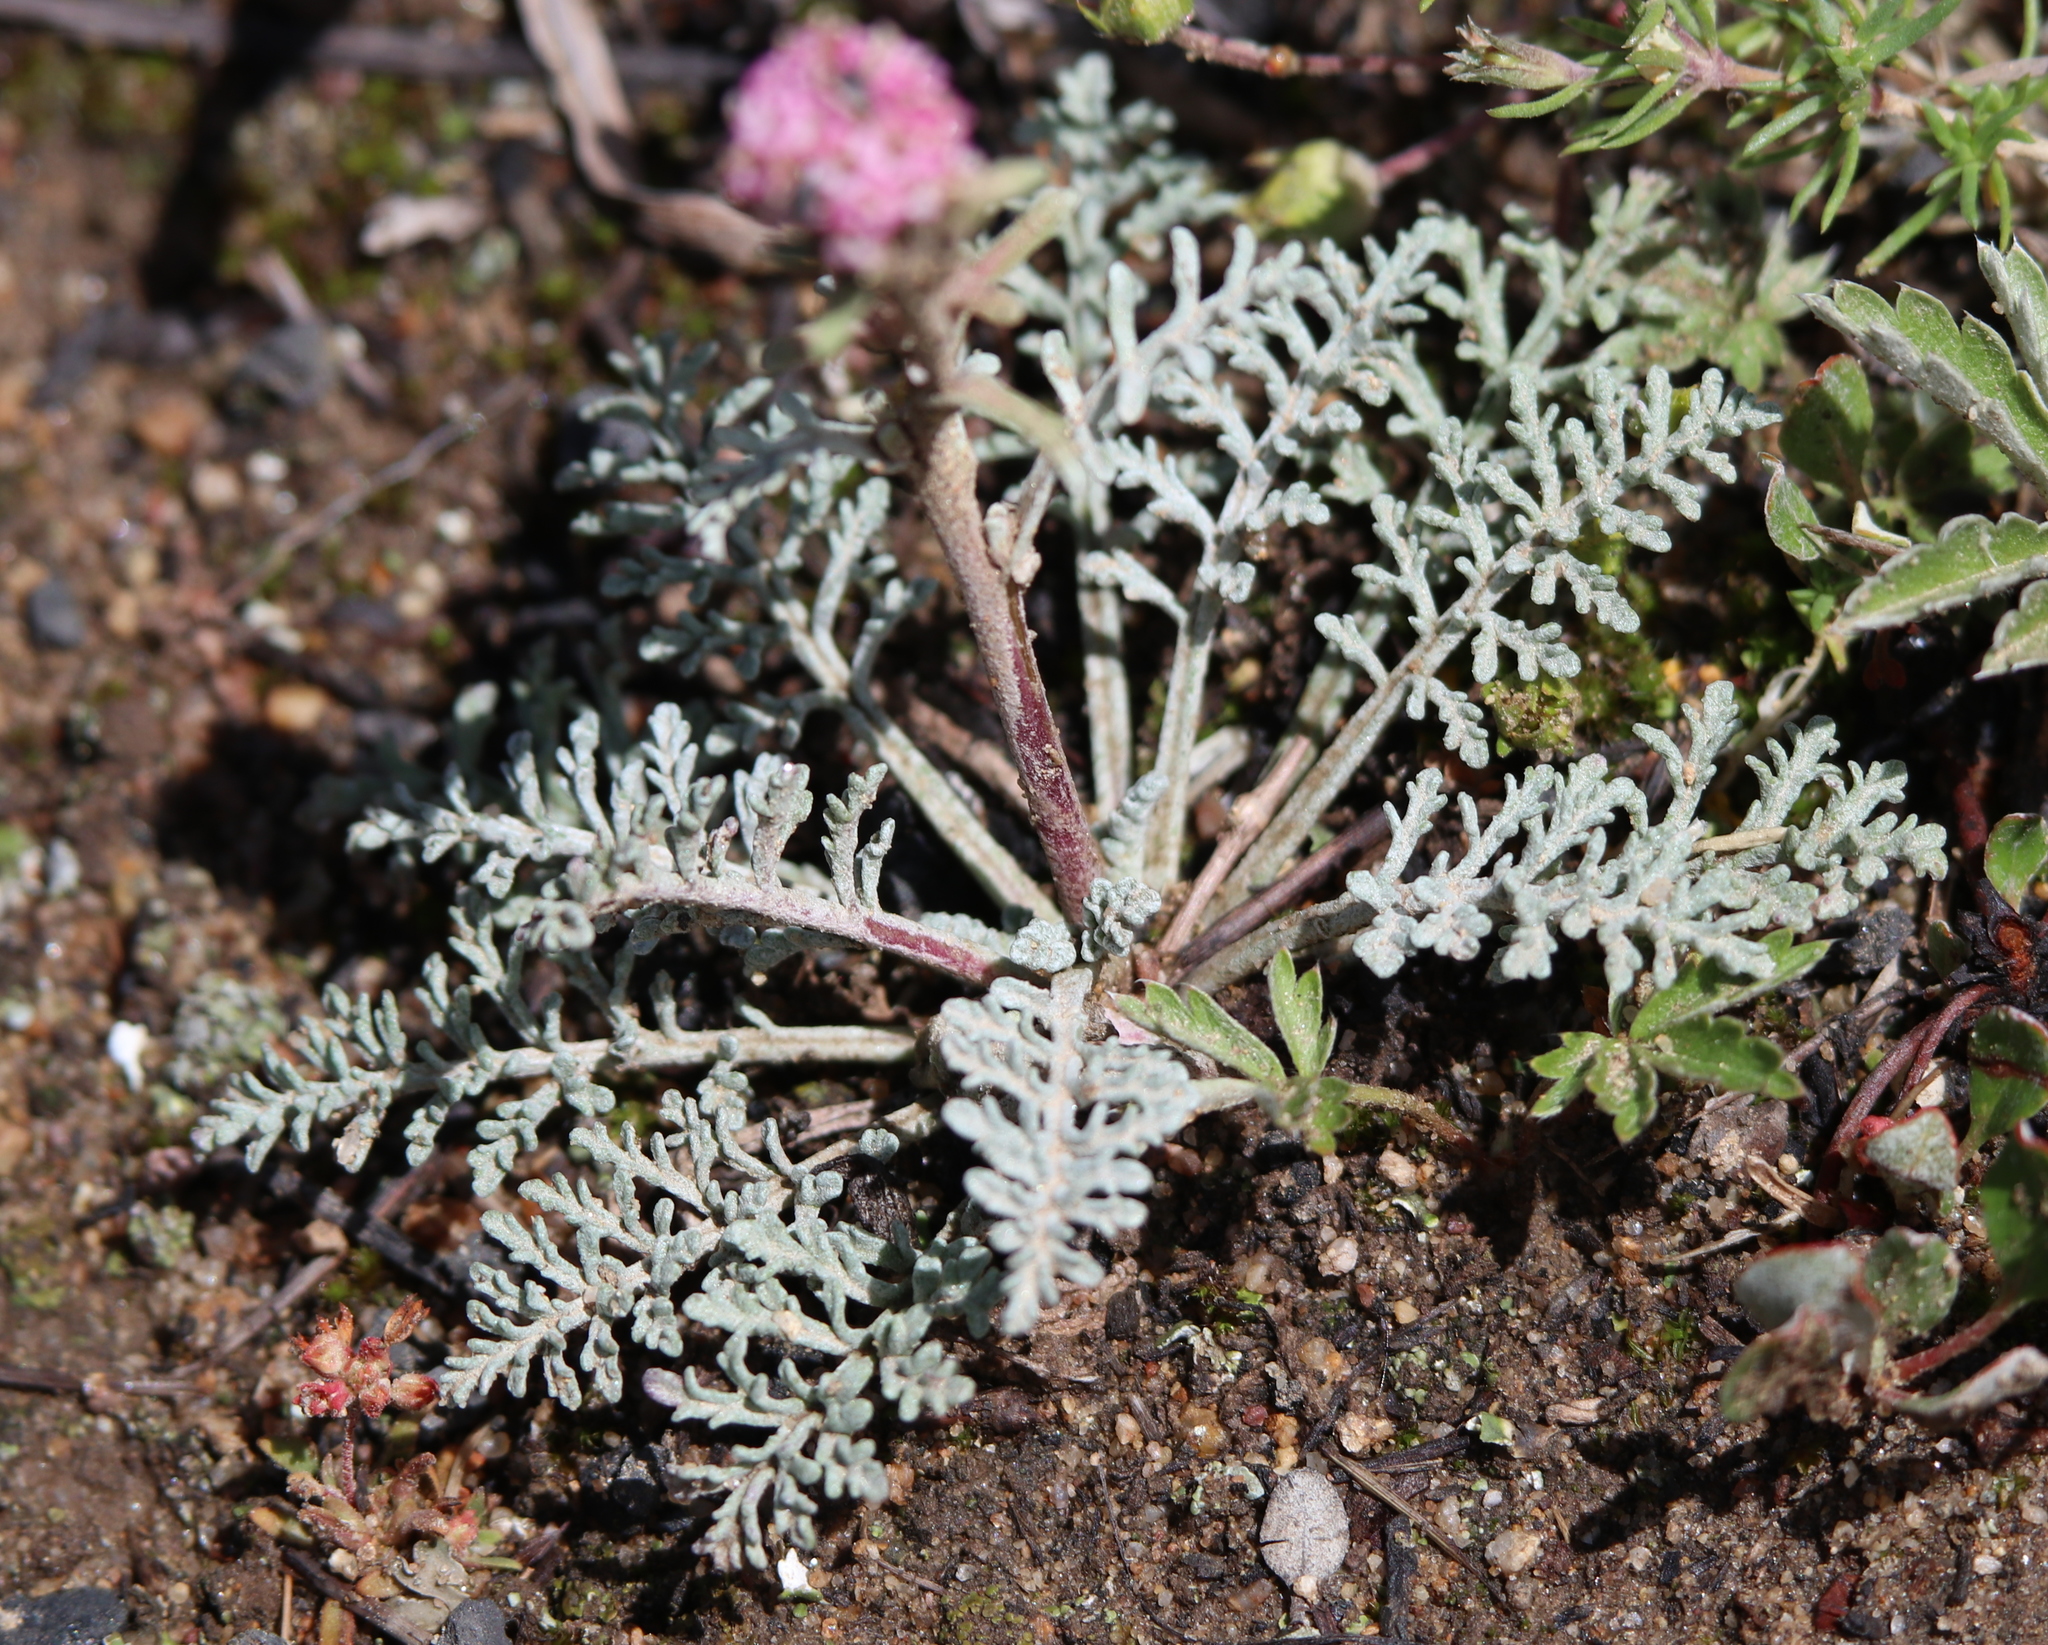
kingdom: Plantae
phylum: Tracheophyta
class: Magnoliopsida
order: Asterales
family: Asteraceae
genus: Chaenactis
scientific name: Chaenactis douglasii
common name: Hoary pincushion
